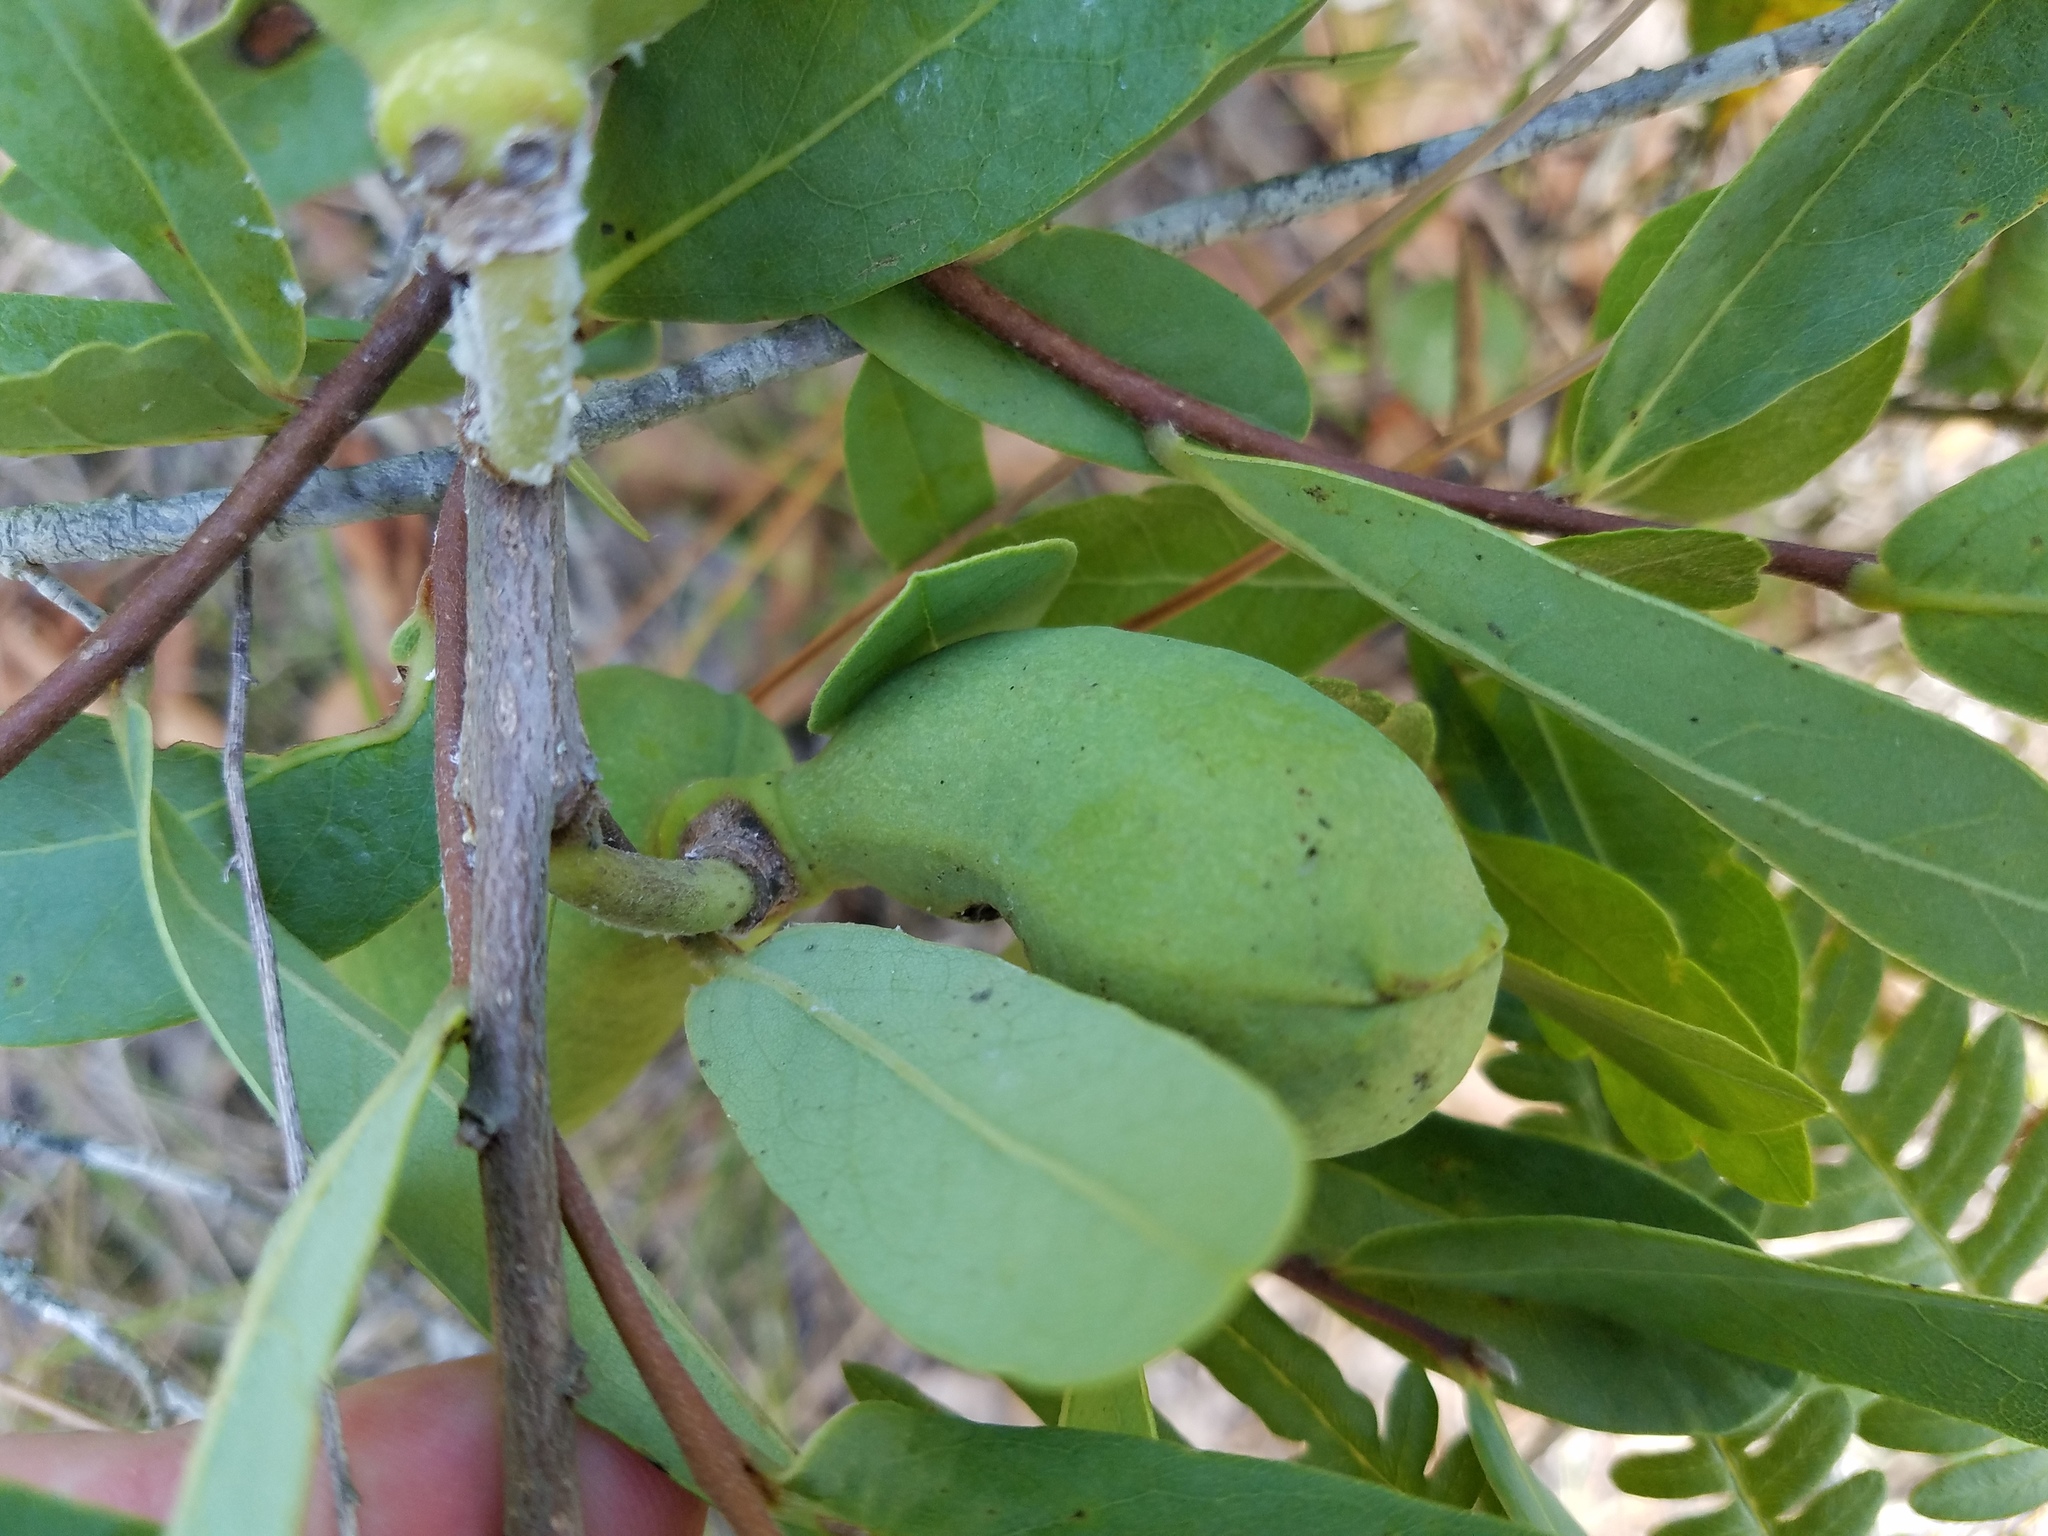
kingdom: Plantae
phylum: Tracheophyta
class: Magnoliopsida
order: Magnoliales
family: Annonaceae
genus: Asimina
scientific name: Asimina reticulata
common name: Flag pawpaw
